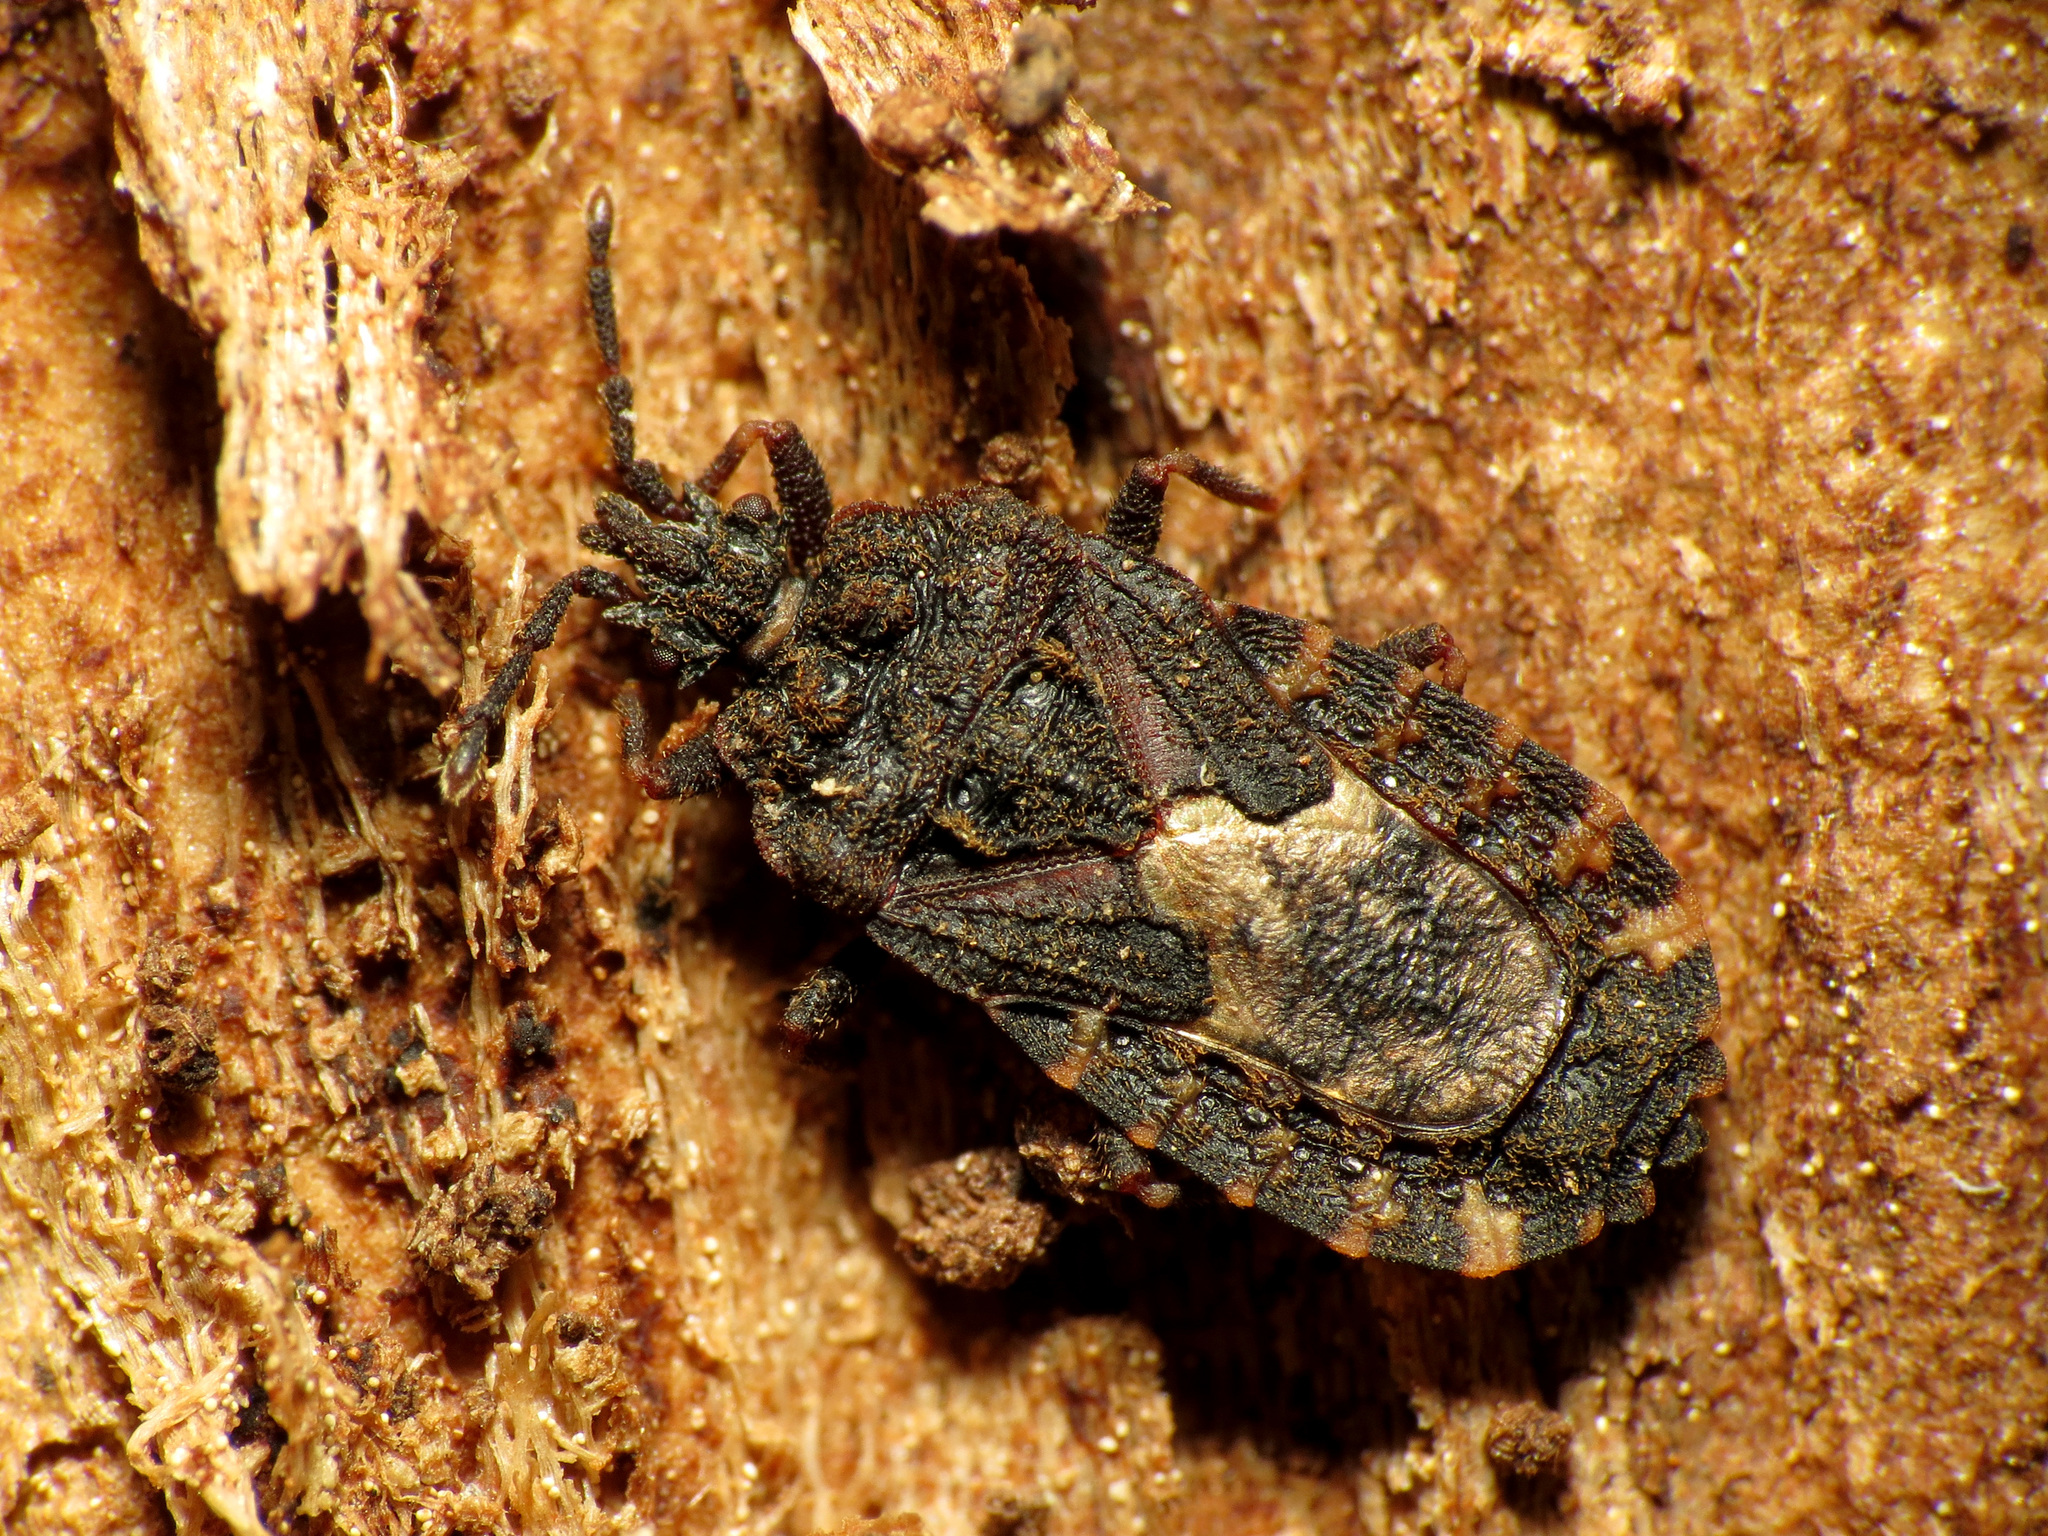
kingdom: Animalia
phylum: Arthropoda
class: Insecta
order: Hemiptera
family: Aradidae
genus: Mezira
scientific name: Mezira
